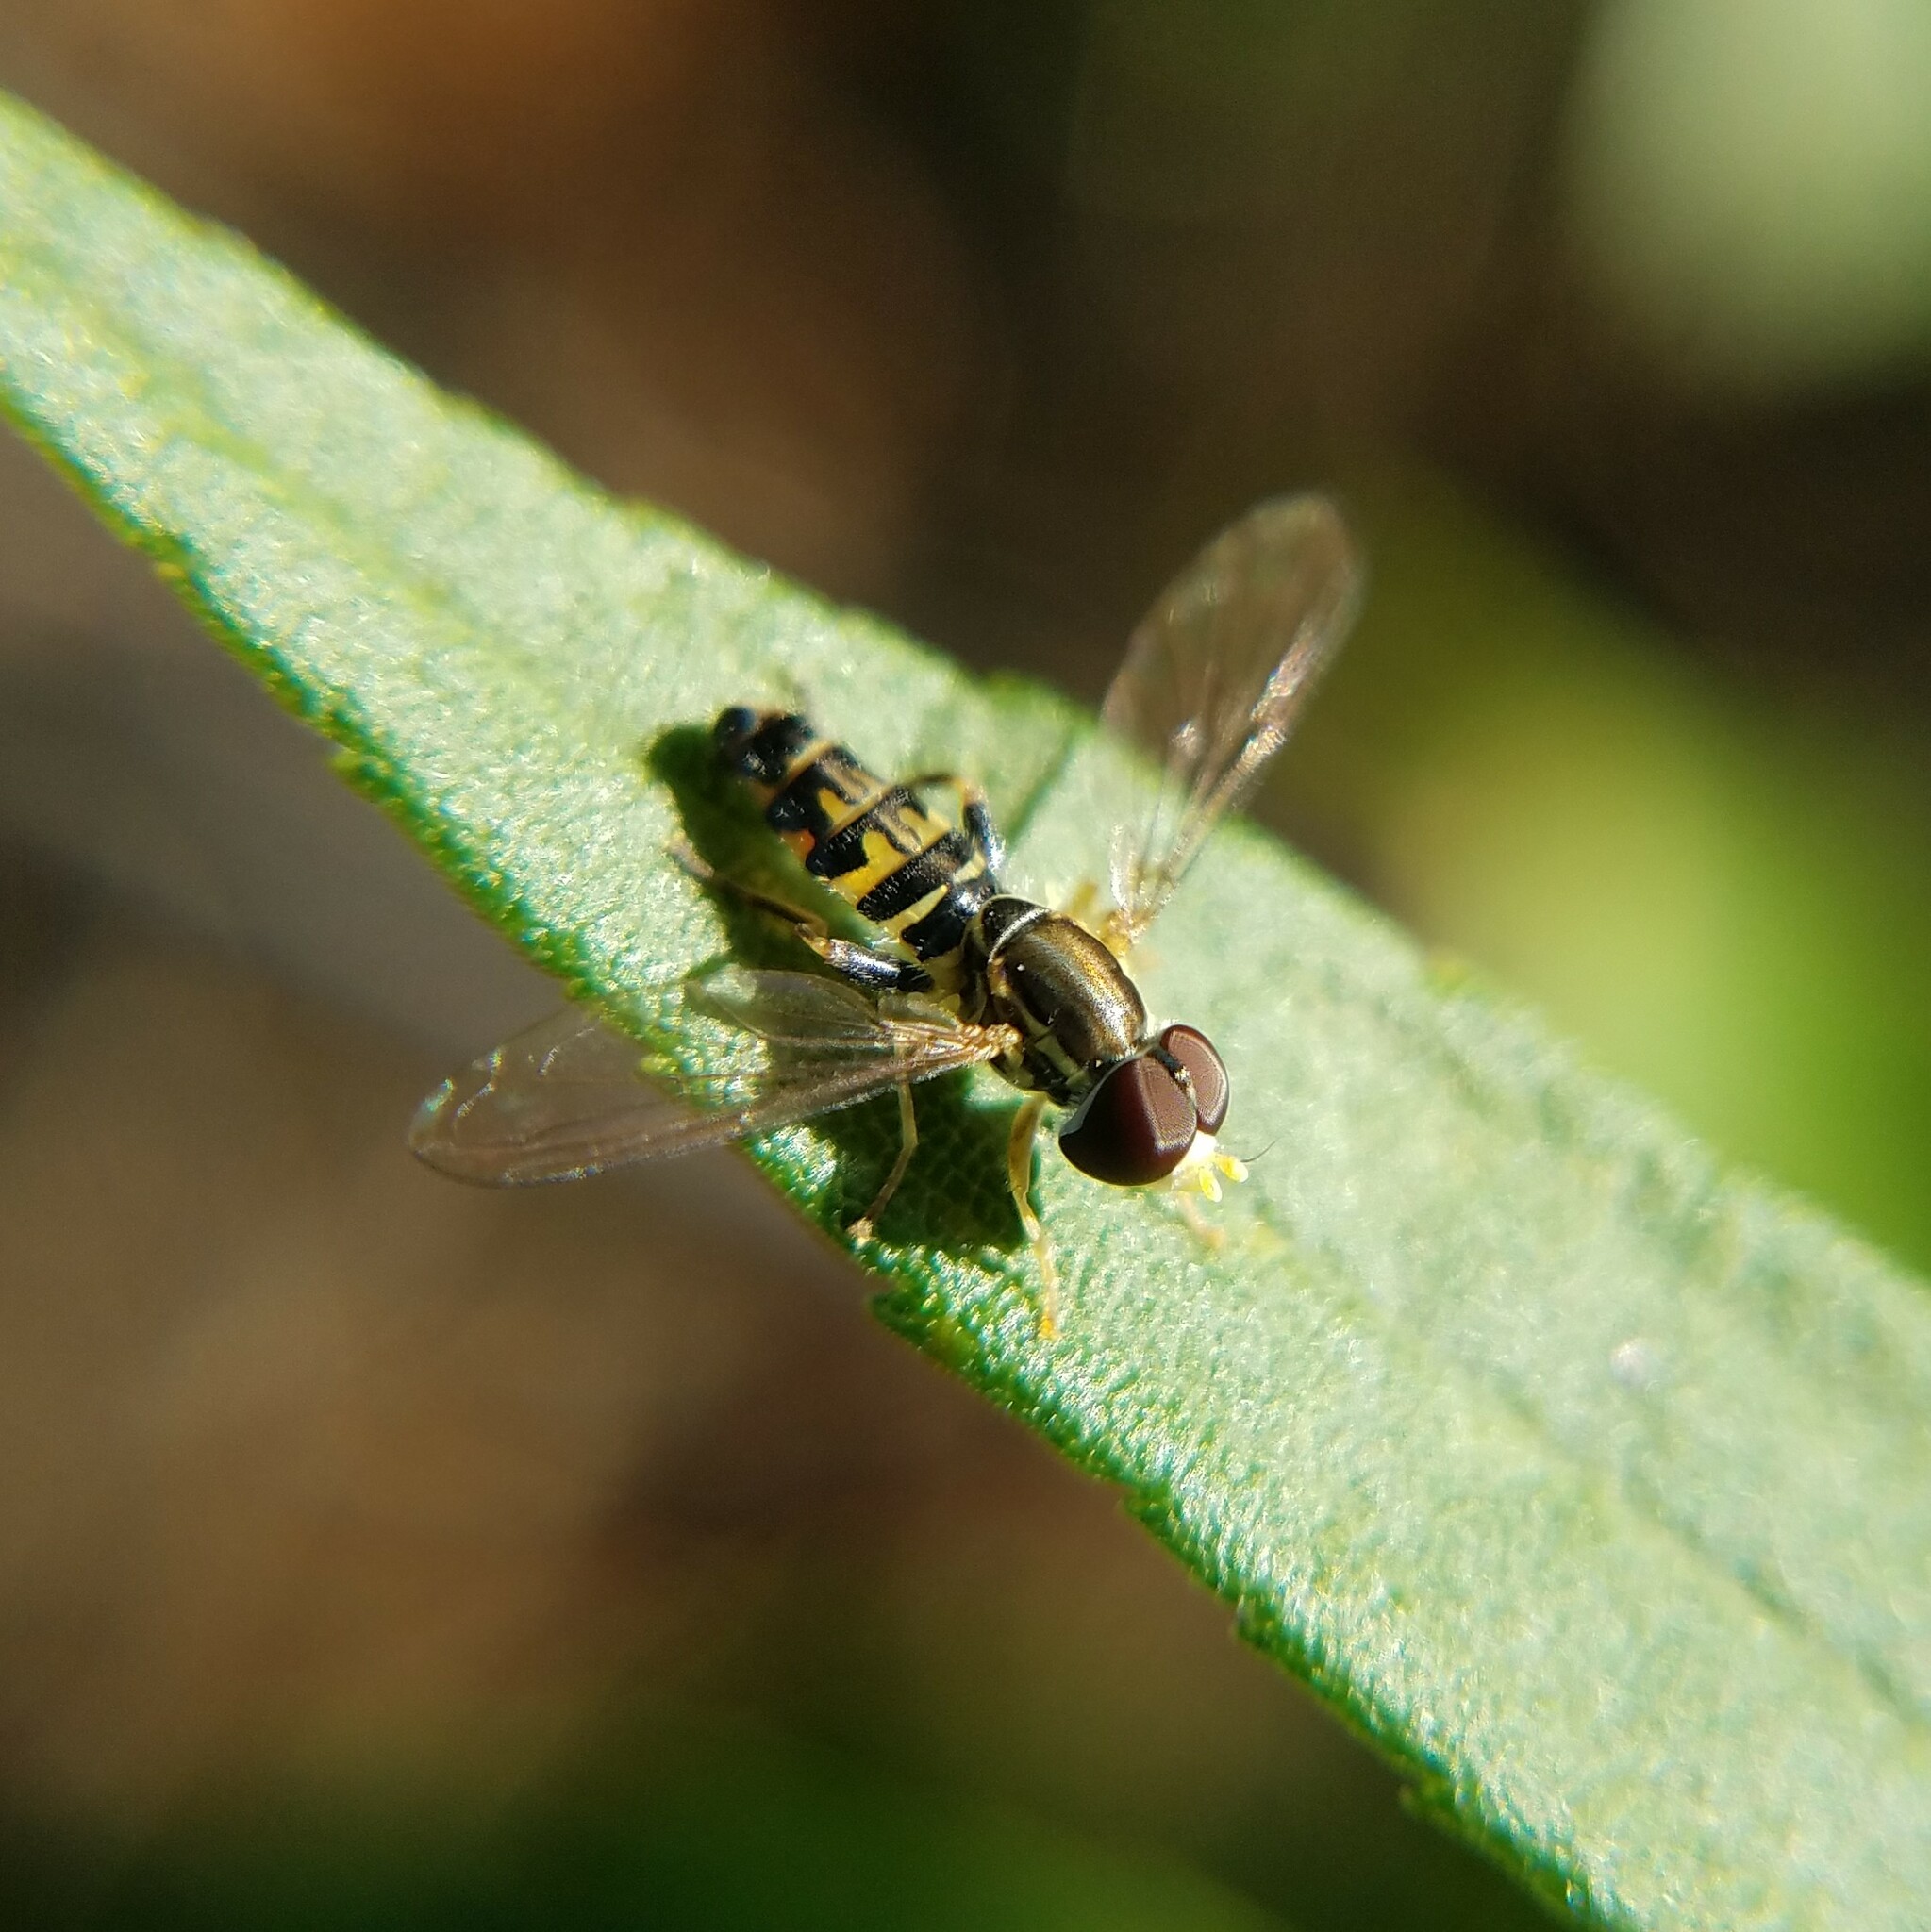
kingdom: Animalia
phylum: Arthropoda
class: Insecta
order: Diptera
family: Syrphidae
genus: Toxomerus
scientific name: Toxomerus geminatus
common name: Eastern calligrapher
